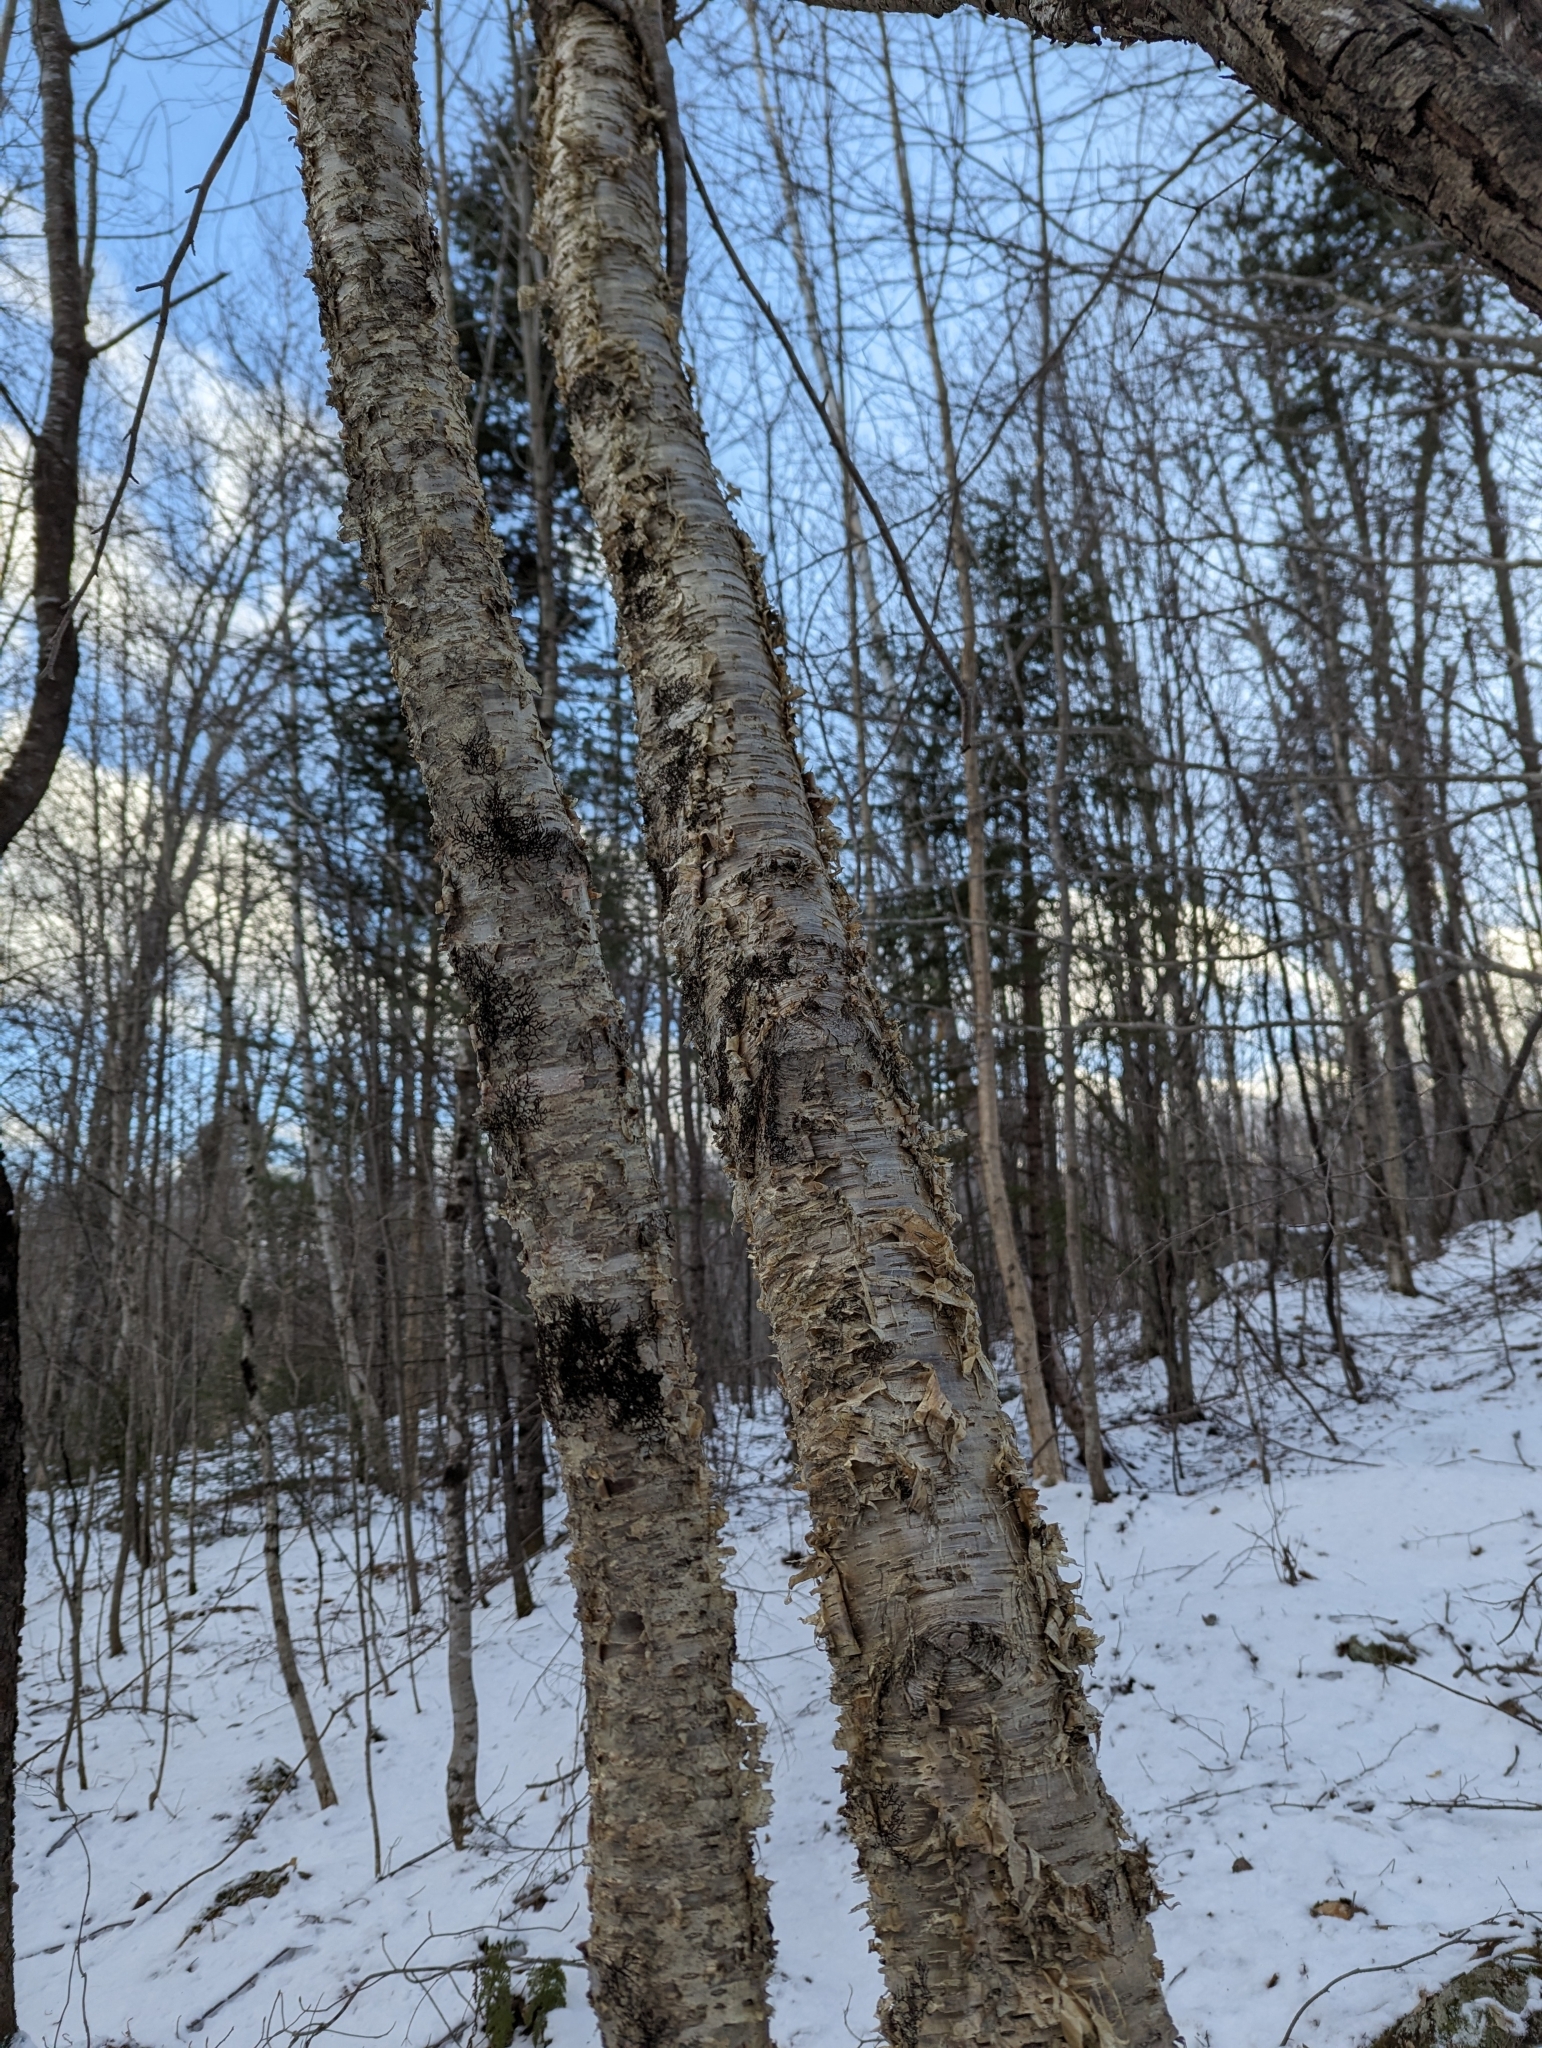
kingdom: Plantae
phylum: Tracheophyta
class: Magnoliopsida
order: Fagales
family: Betulaceae
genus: Betula
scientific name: Betula alleghaniensis
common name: Yellow birch
